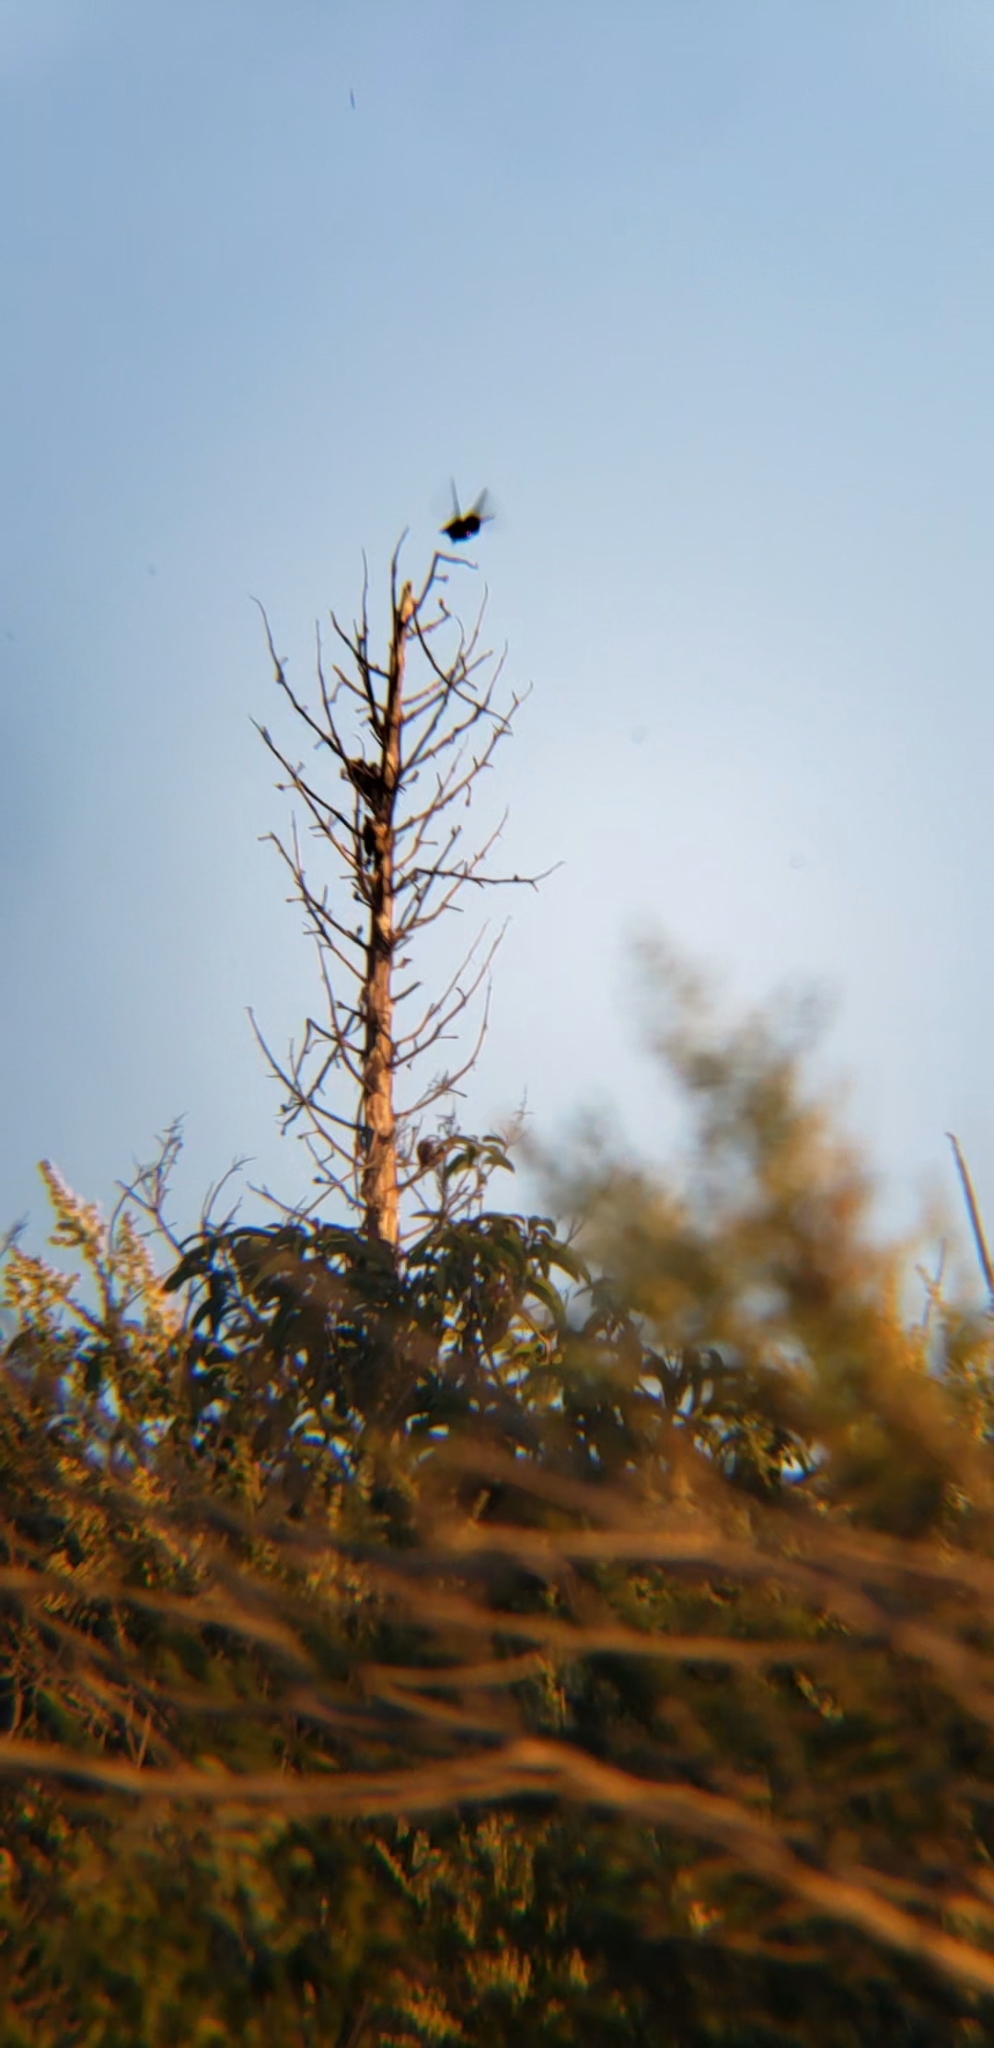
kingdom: Animalia
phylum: Chordata
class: Aves
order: Apodiformes
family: Trochilidae
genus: Calypte
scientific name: Calypte anna
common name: Anna's hummingbird
